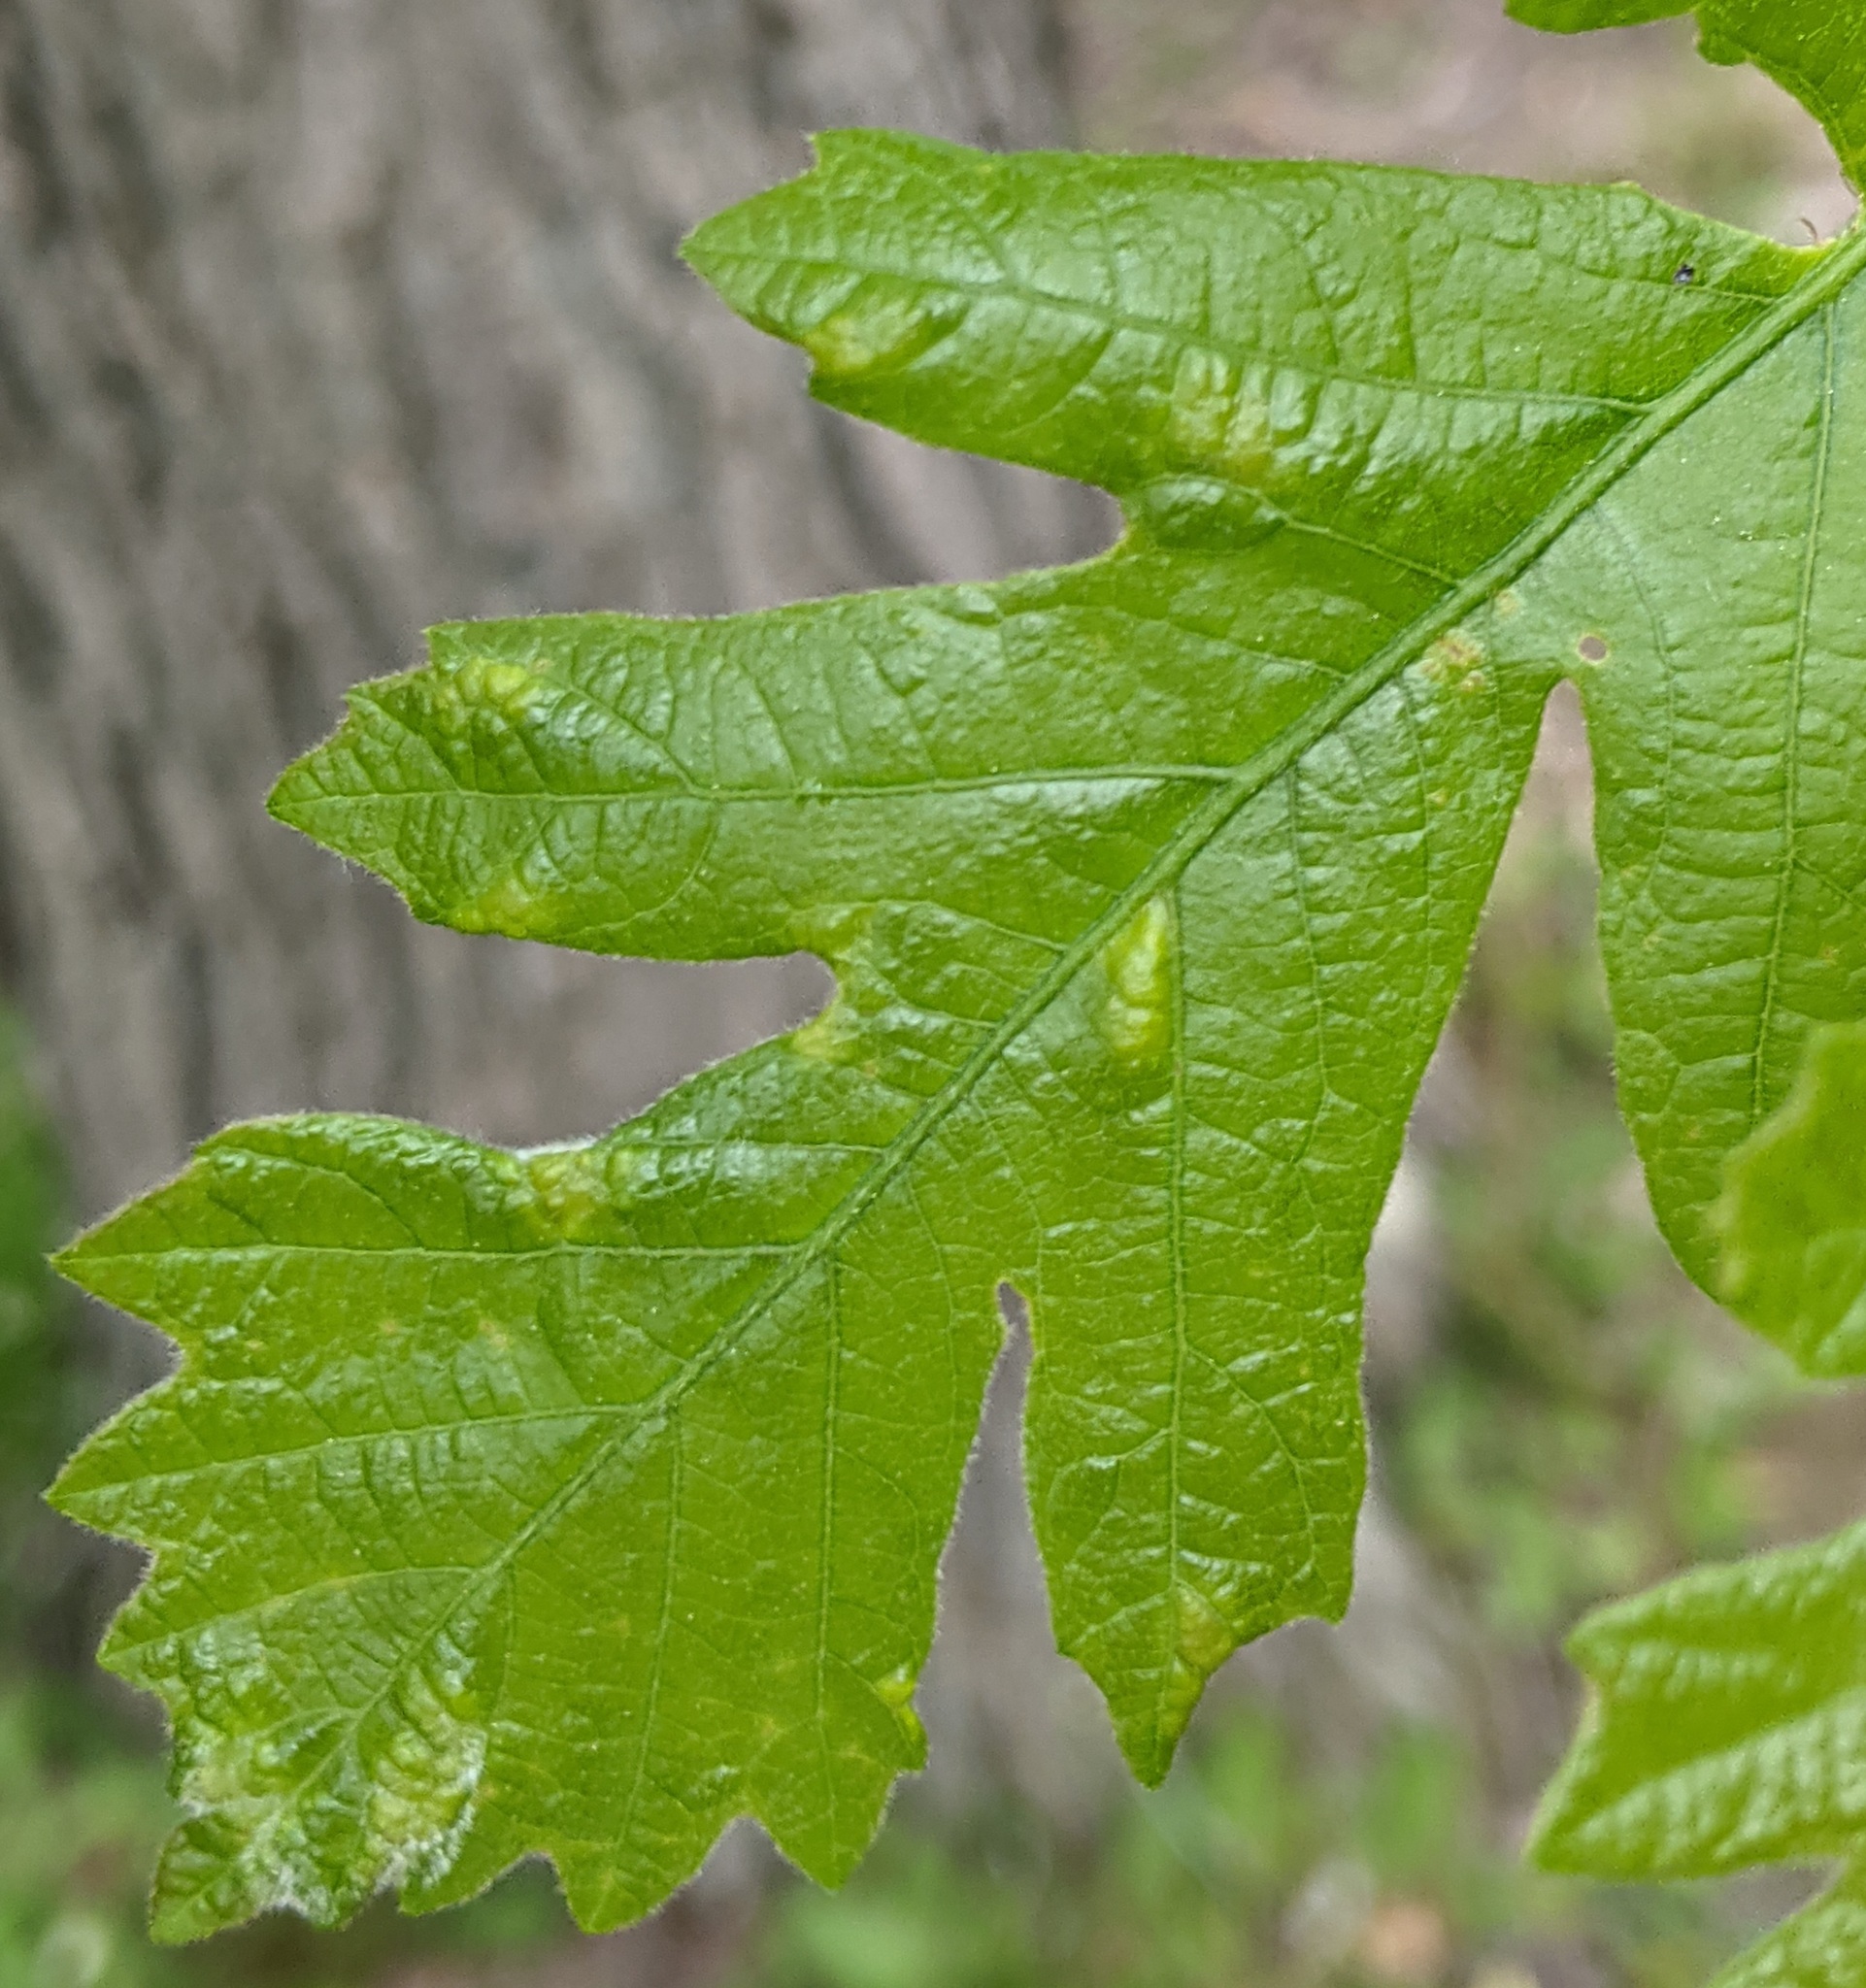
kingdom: Animalia
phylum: Arthropoda
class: Arachnida
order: Trombidiformes
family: Eriophyidae
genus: Aceria
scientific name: Aceria quercina
